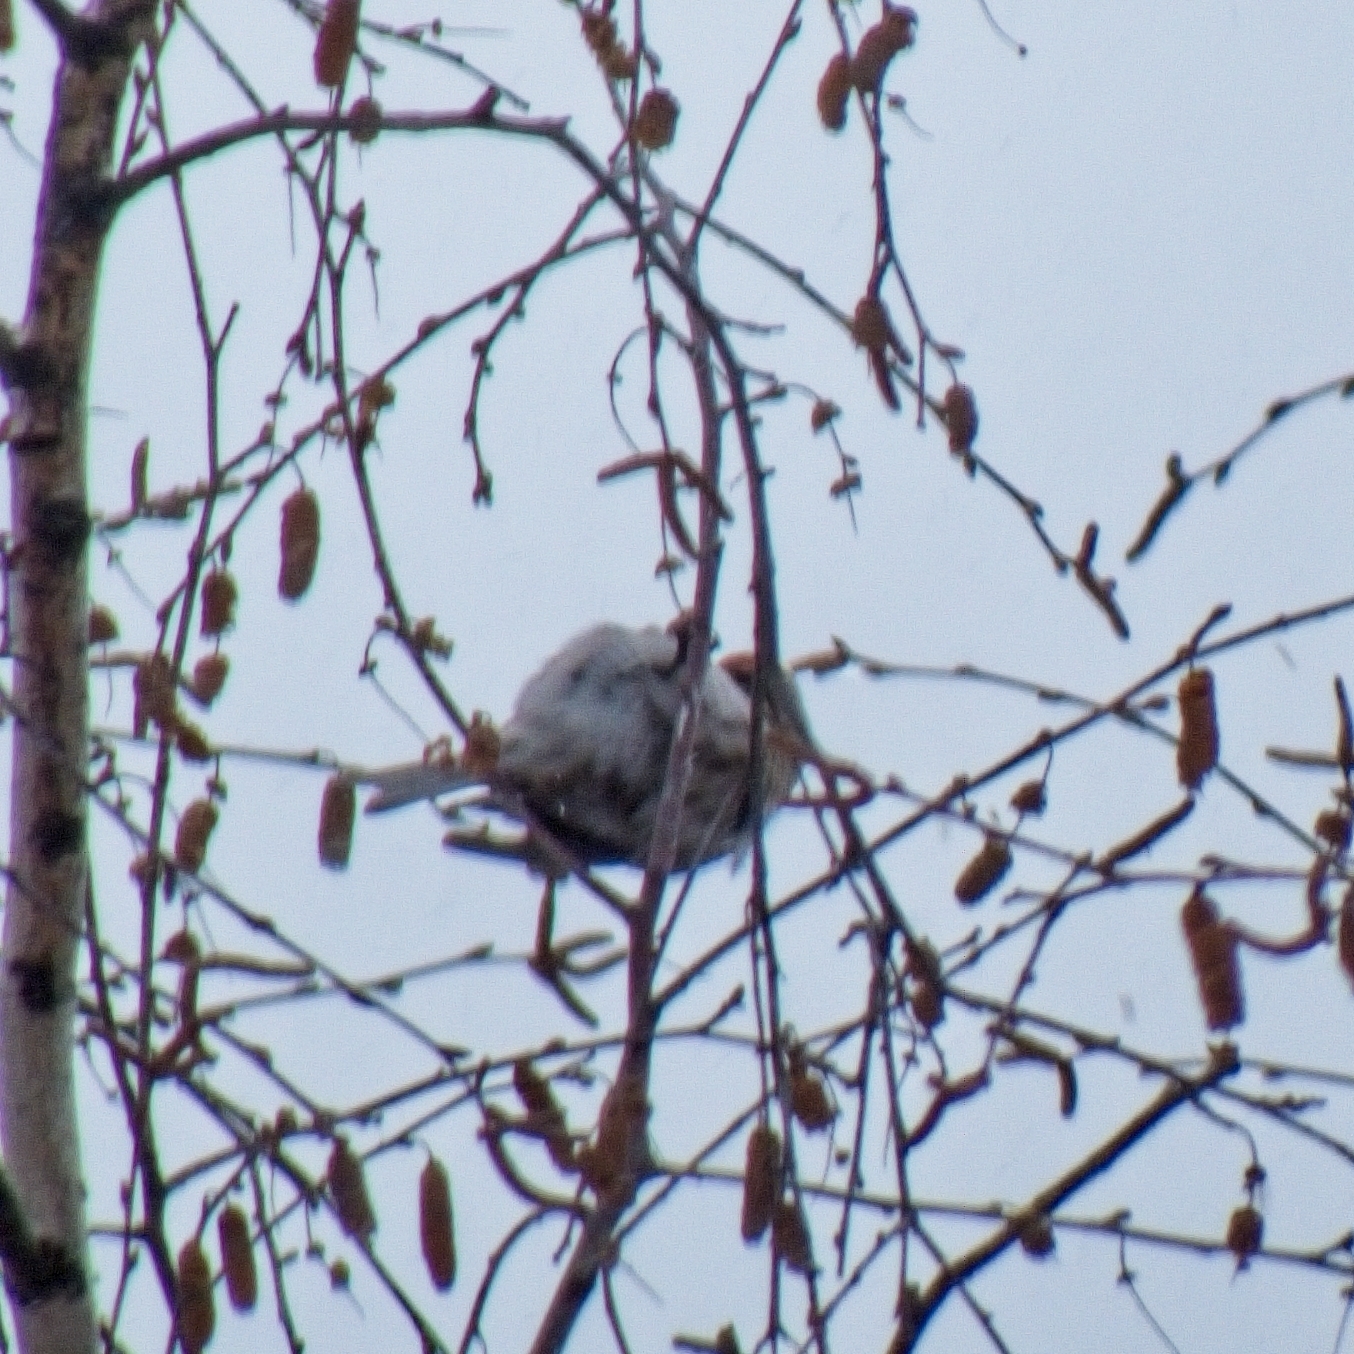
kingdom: Animalia
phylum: Chordata
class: Aves
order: Passeriformes
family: Fringillidae
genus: Acanthis
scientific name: Acanthis hornemanni
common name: Arctic redpoll
